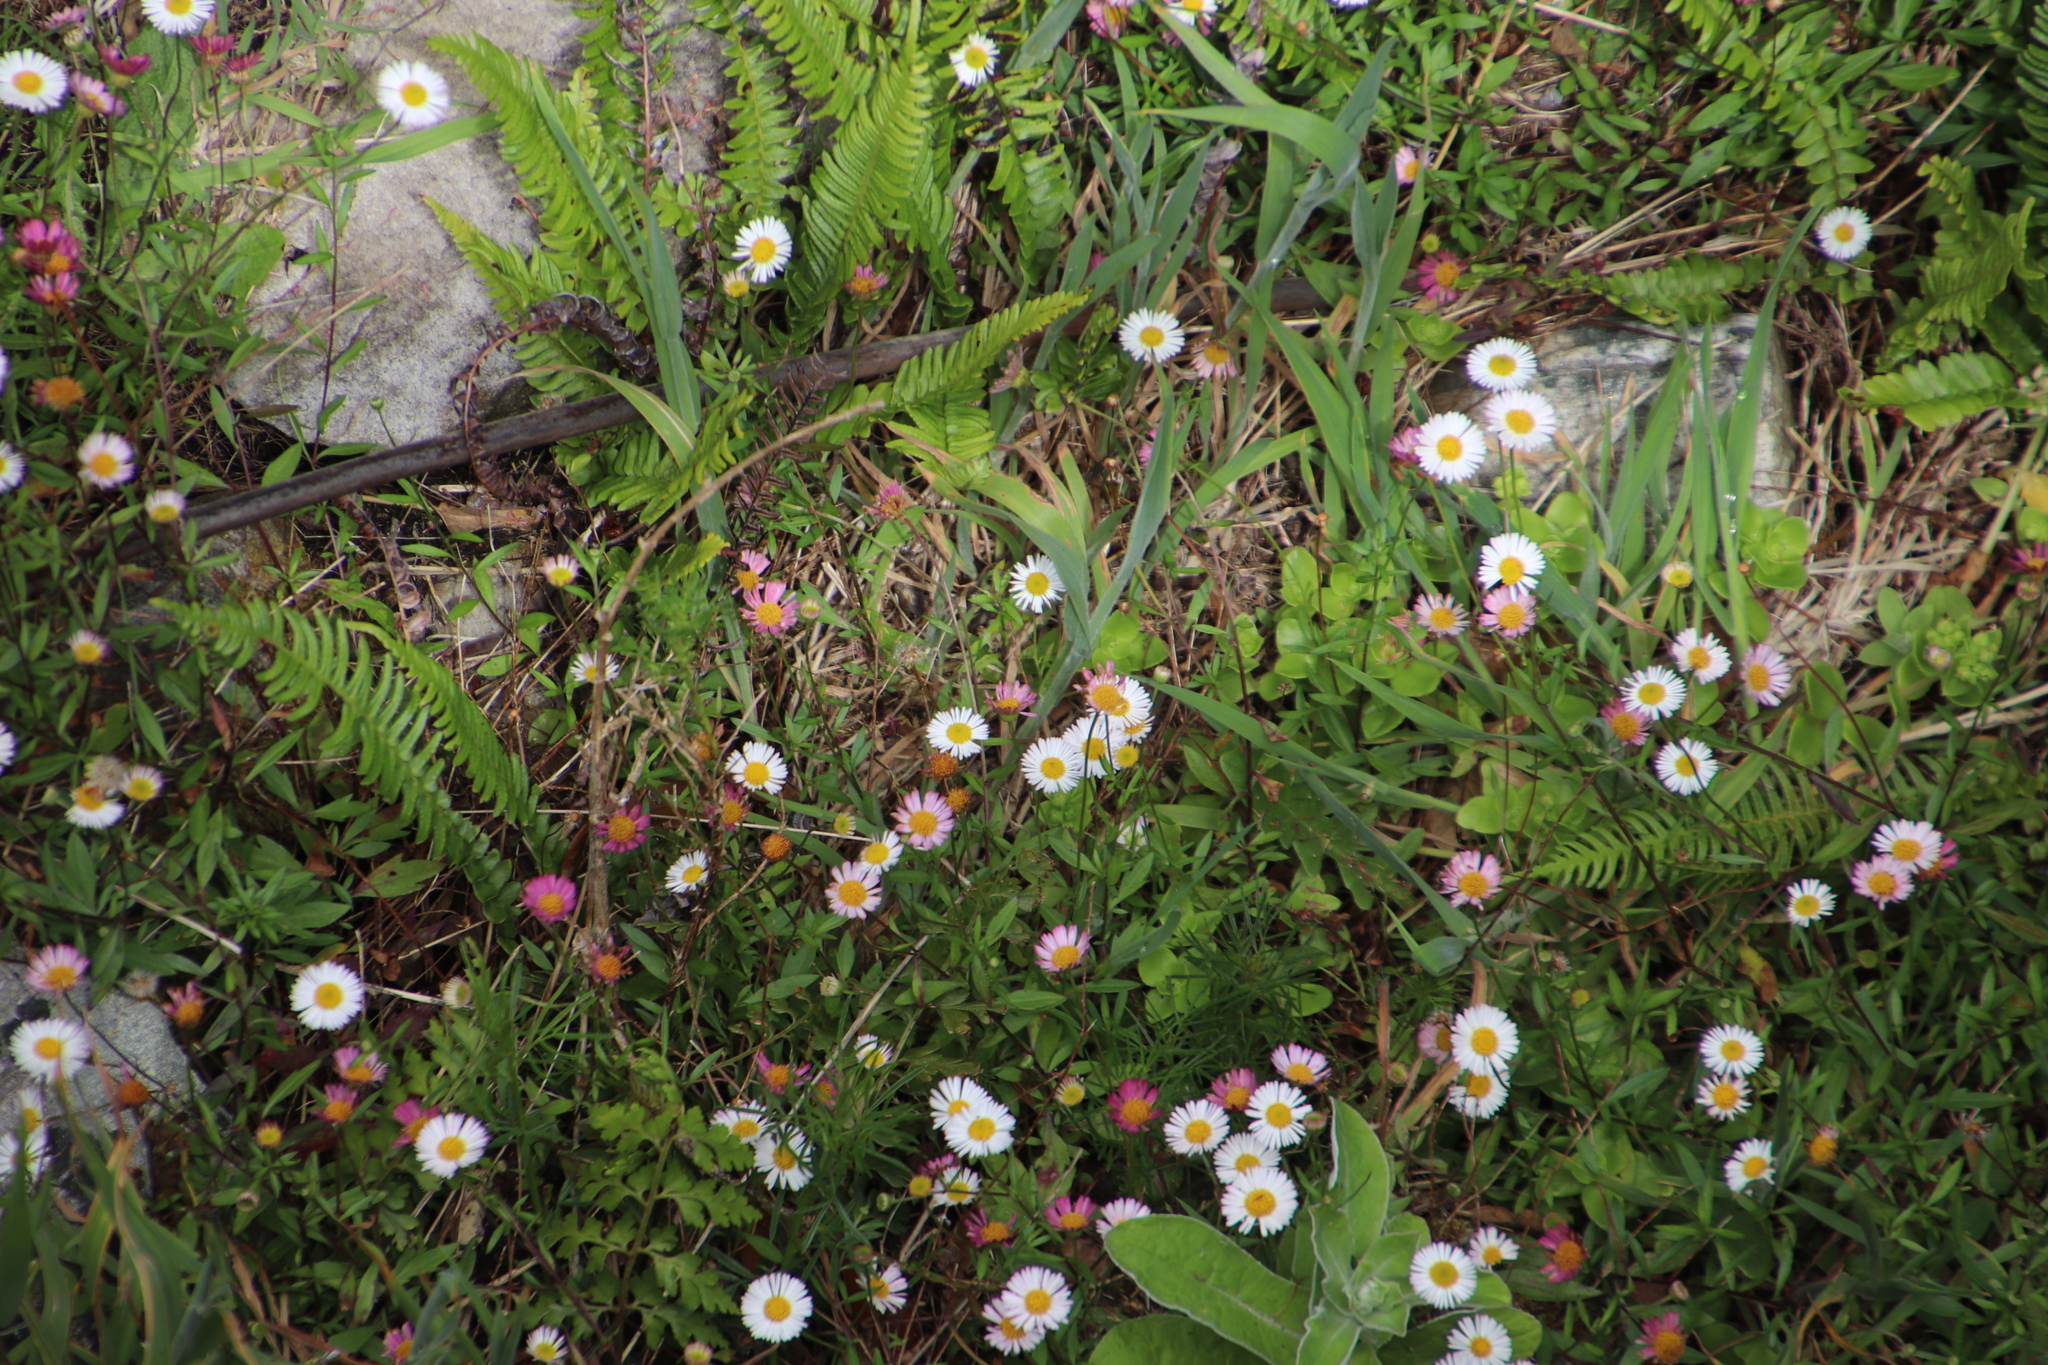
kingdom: Plantae
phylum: Tracheophyta
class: Magnoliopsida
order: Asterales
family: Asteraceae
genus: Erigeron
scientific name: Erigeron karvinskianus
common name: Mexican fleabane
